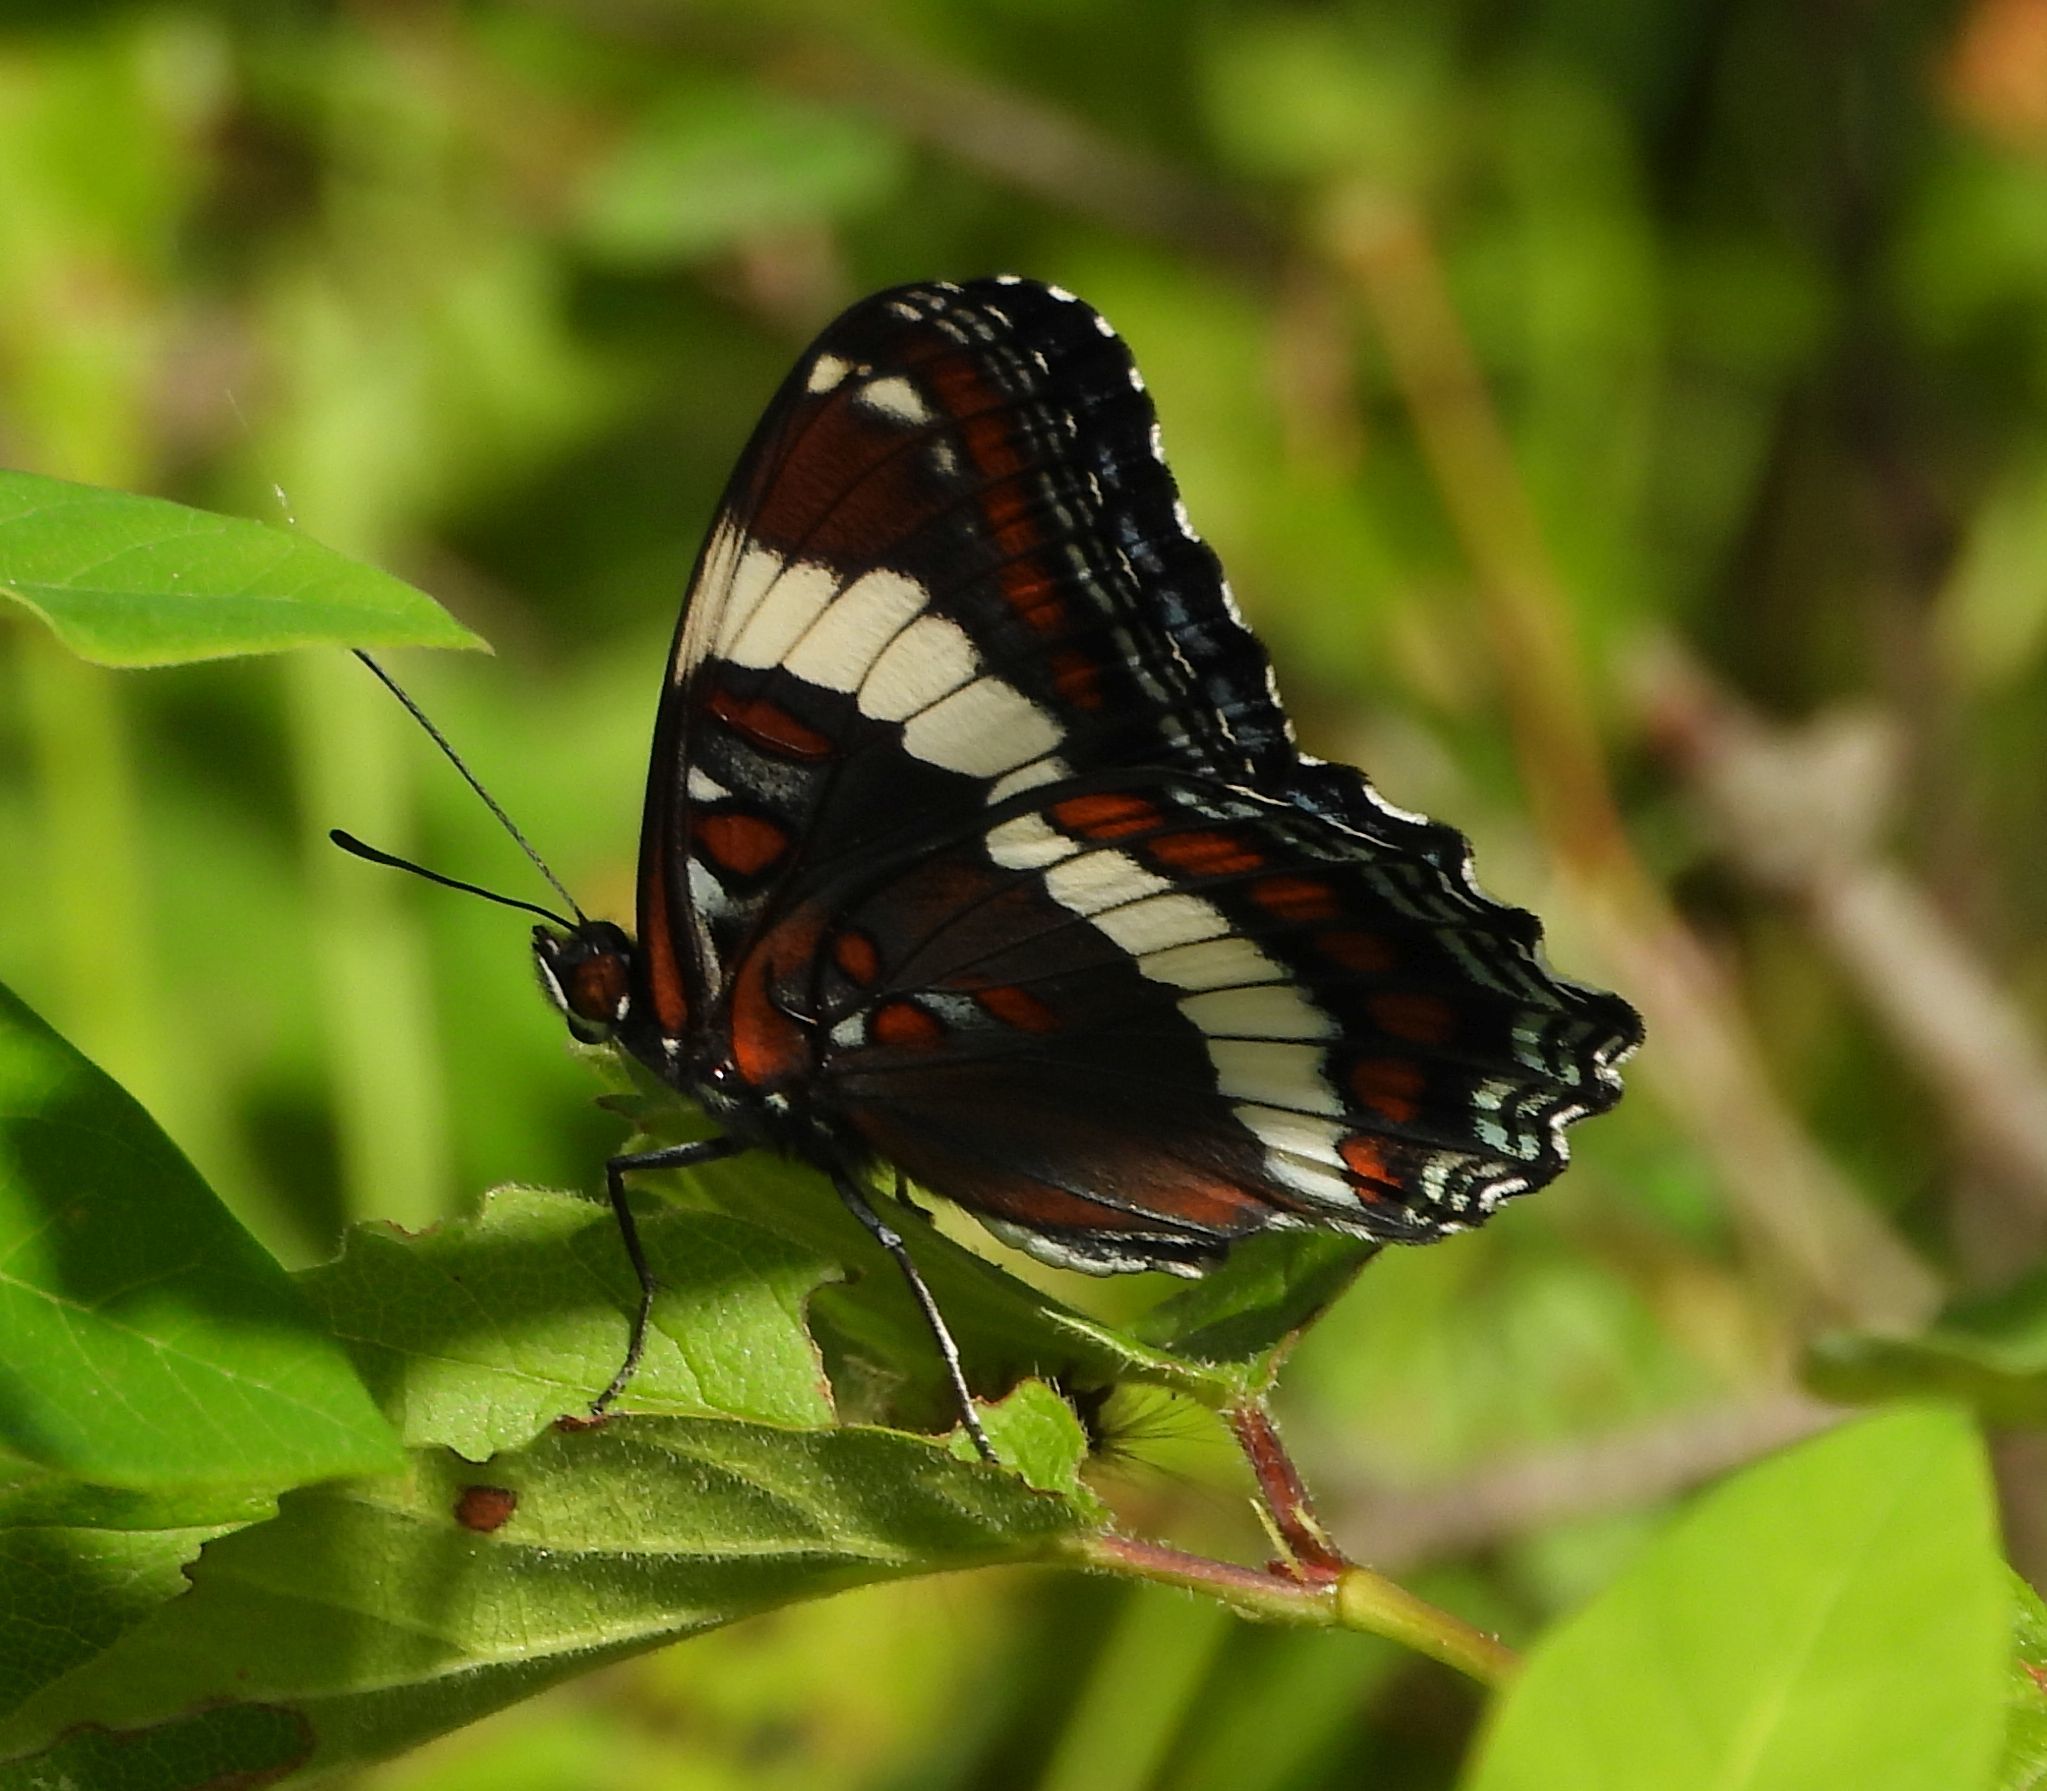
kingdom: Animalia
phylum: Arthropoda
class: Insecta
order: Lepidoptera
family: Nymphalidae
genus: Limenitis
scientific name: Limenitis arthemis
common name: Red-spotted admiral
